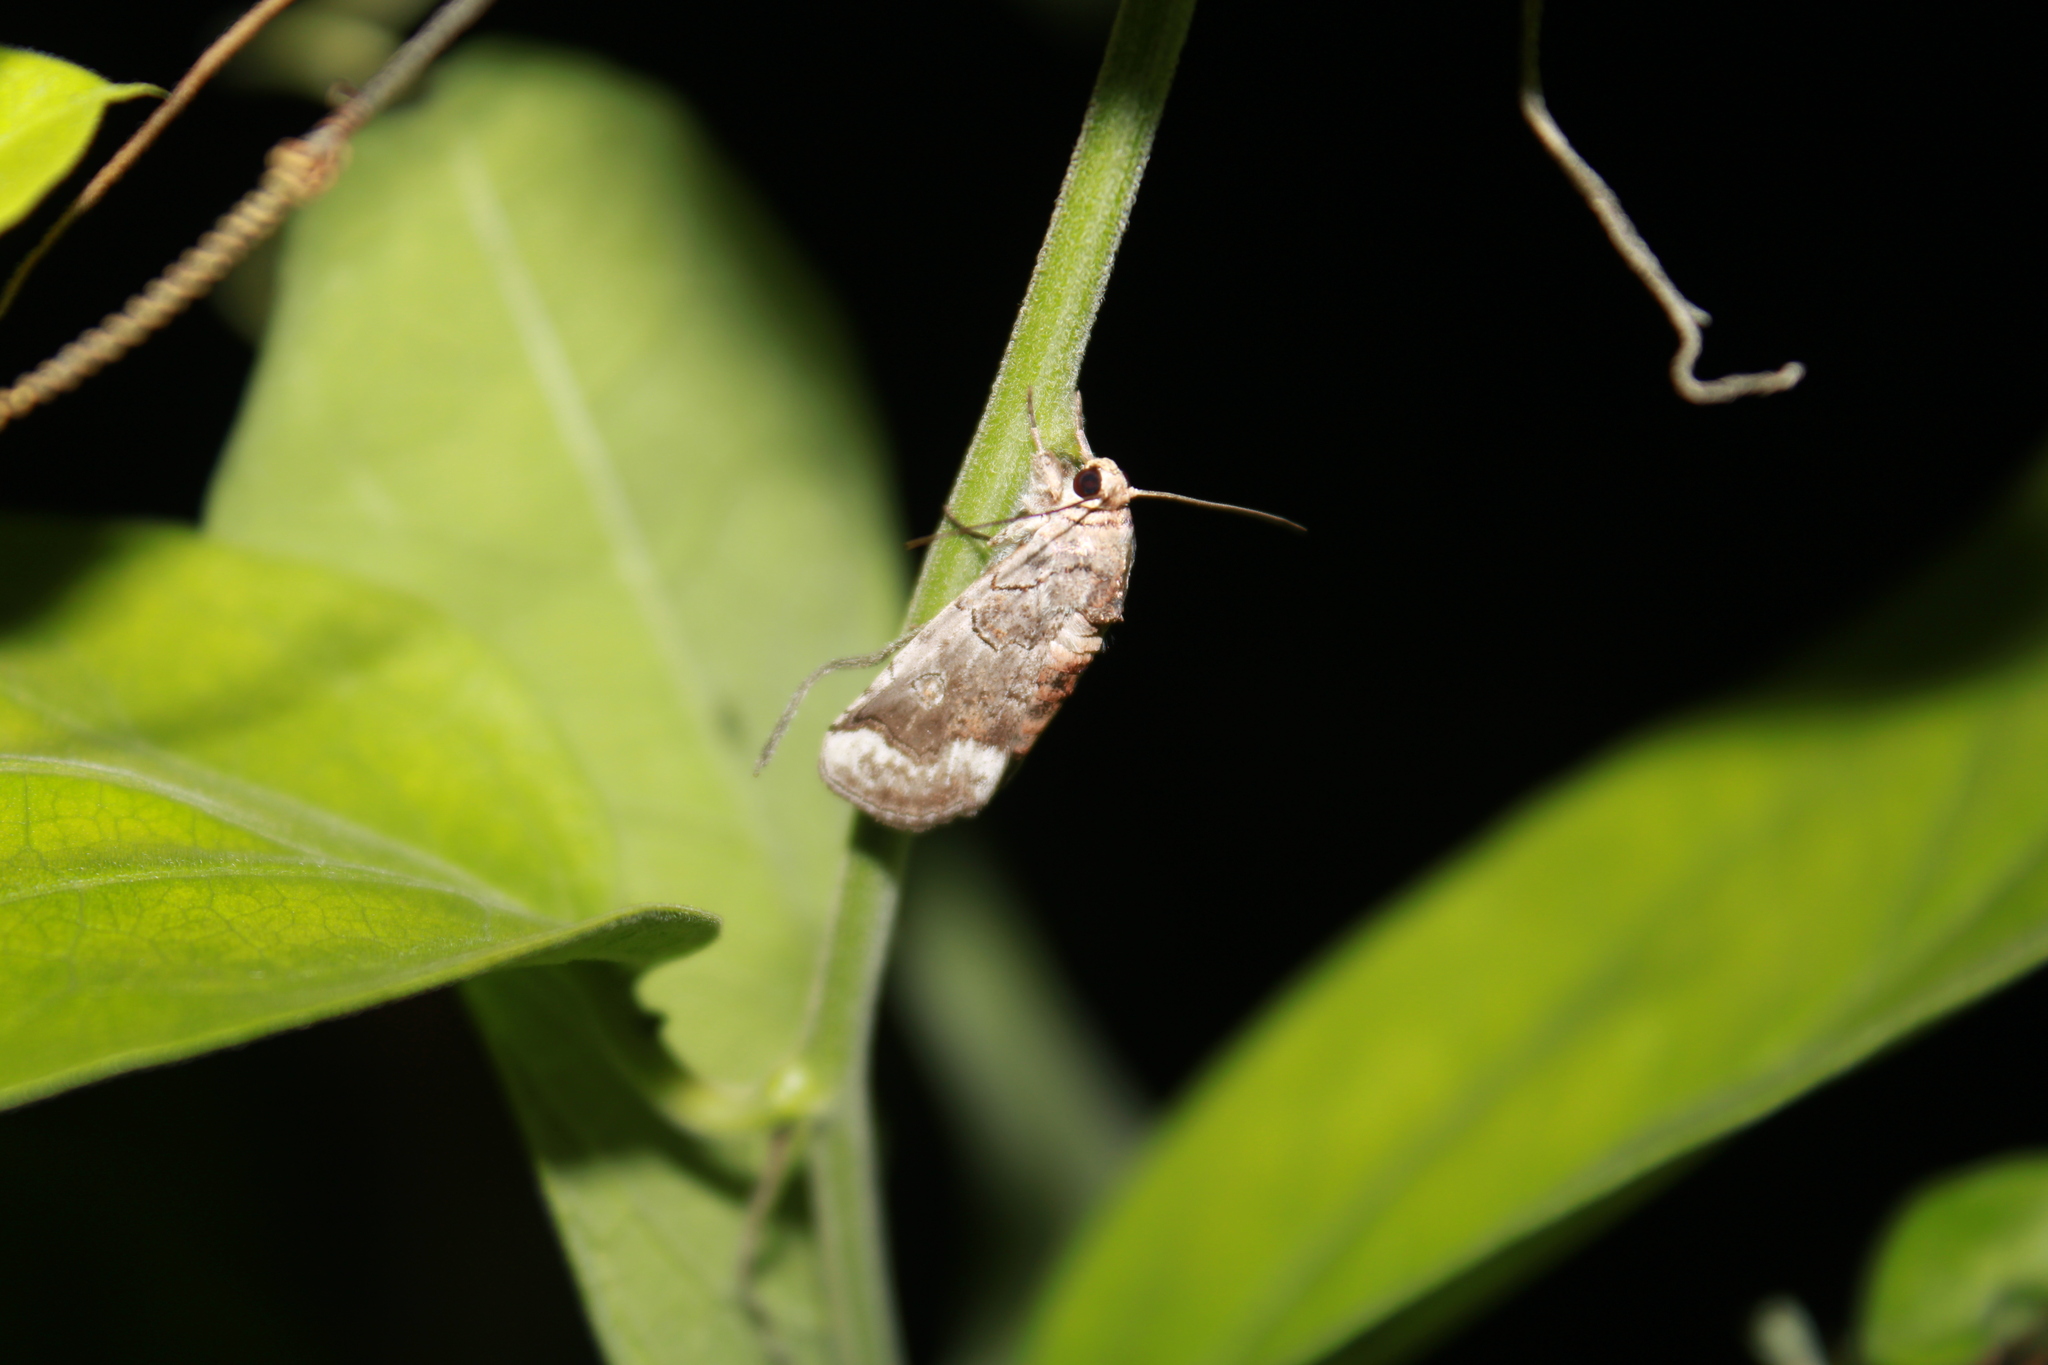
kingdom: Animalia
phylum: Arthropoda
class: Insecta
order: Lepidoptera
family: Nolidae
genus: Motya
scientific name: Motya
